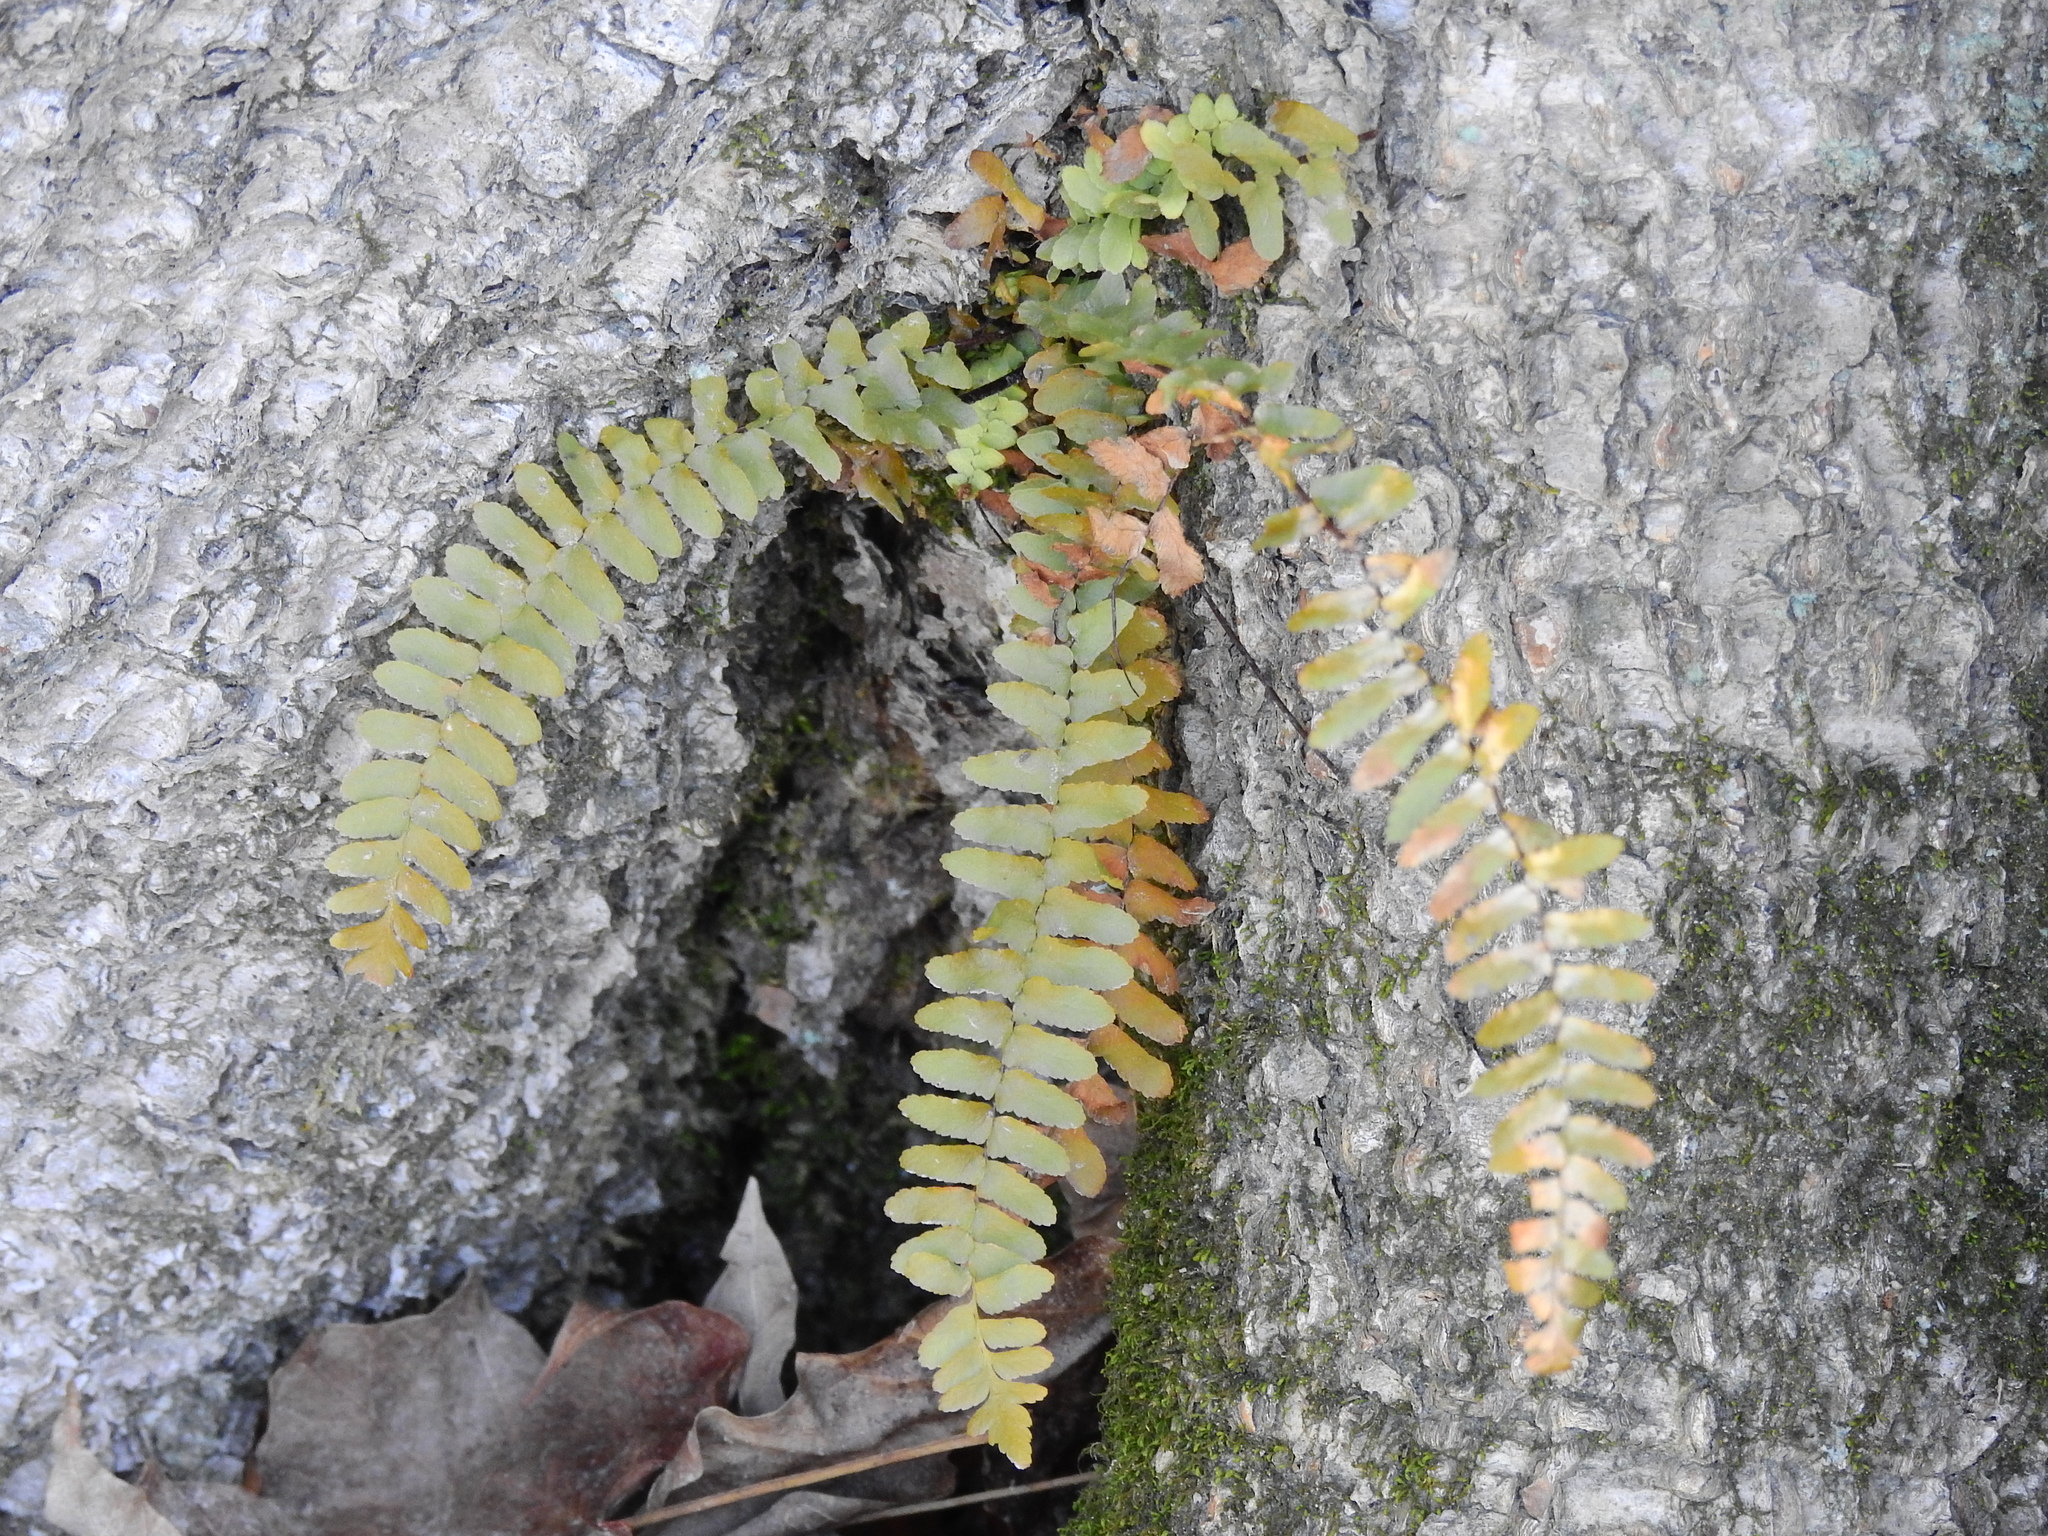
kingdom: Plantae
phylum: Tracheophyta
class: Polypodiopsida
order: Polypodiales
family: Aspleniaceae
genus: Asplenium
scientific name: Asplenium platyneuron
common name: Ebony spleenwort
